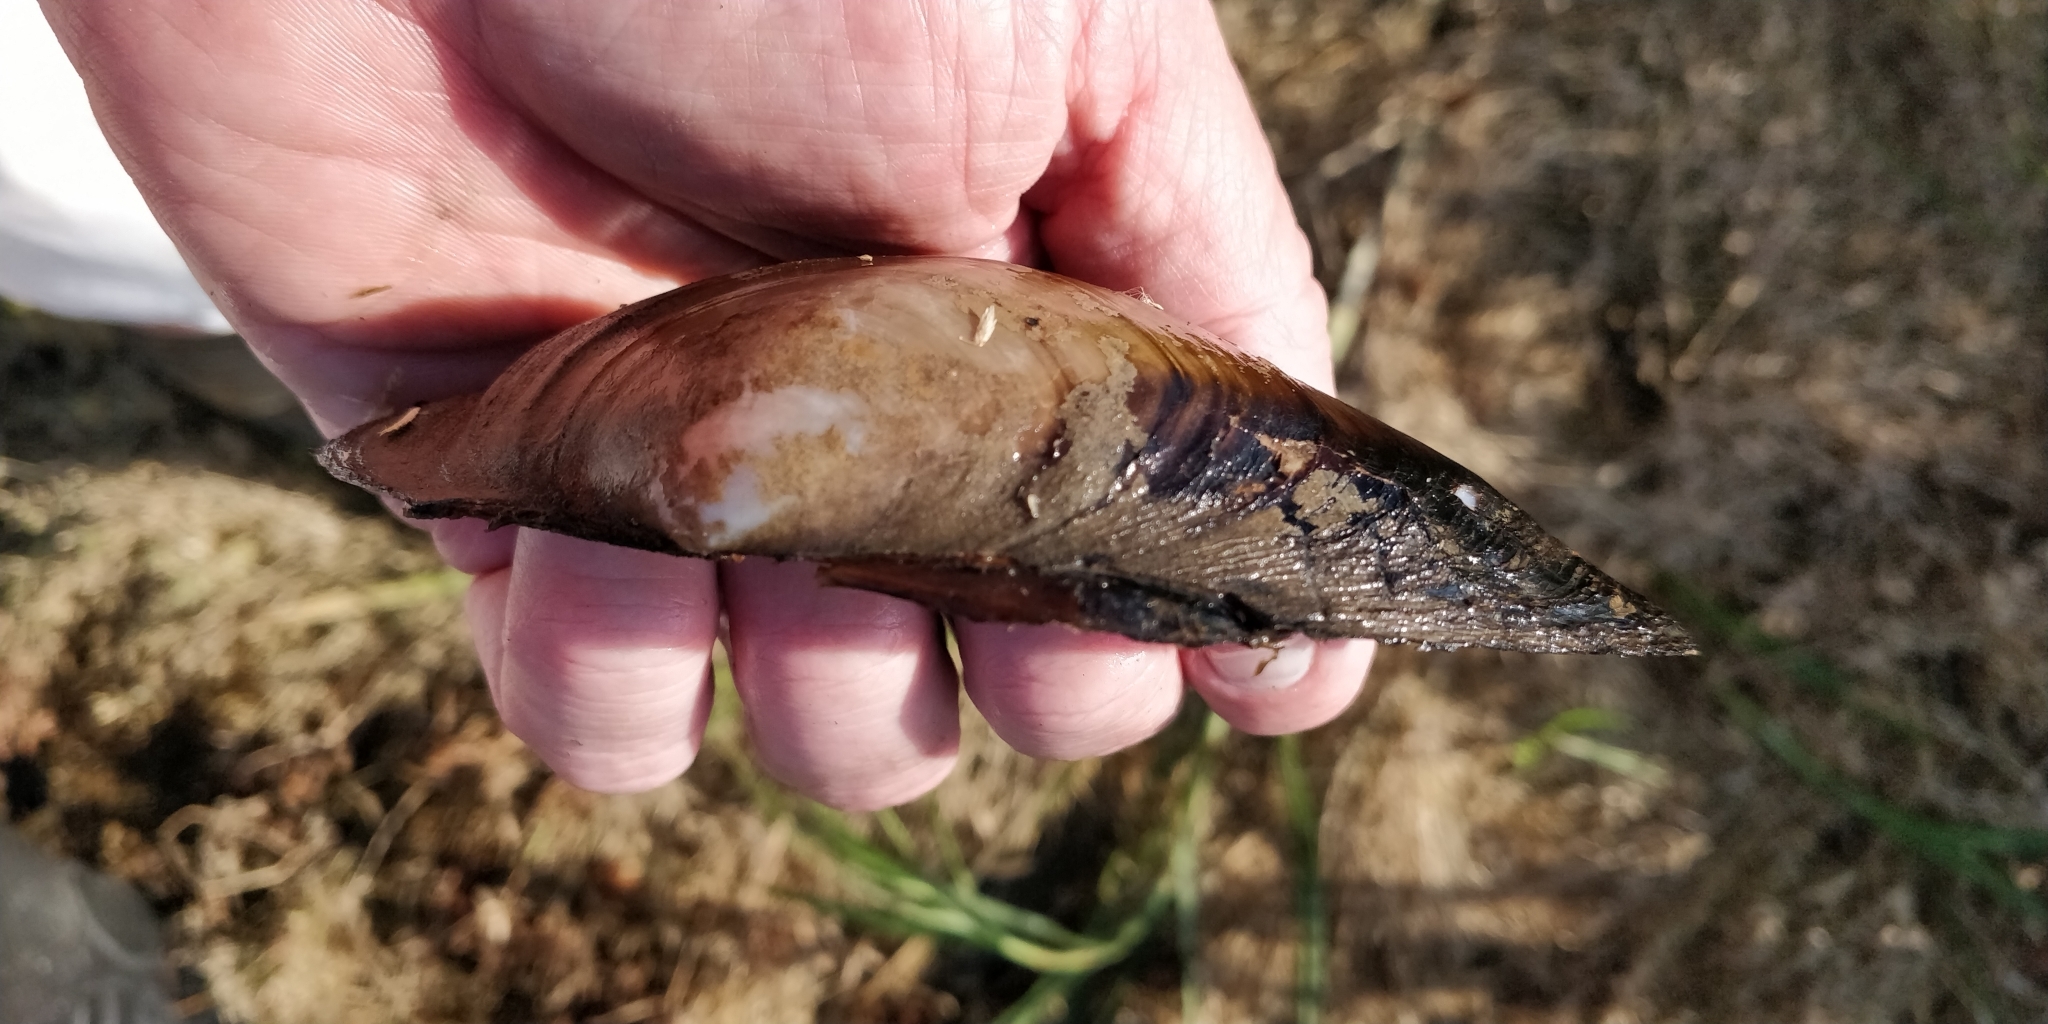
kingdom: Animalia
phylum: Mollusca
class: Bivalvia
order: Unionida
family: Unionidae
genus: Pyganodon
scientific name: Pyganodon grandis
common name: Giant floater
